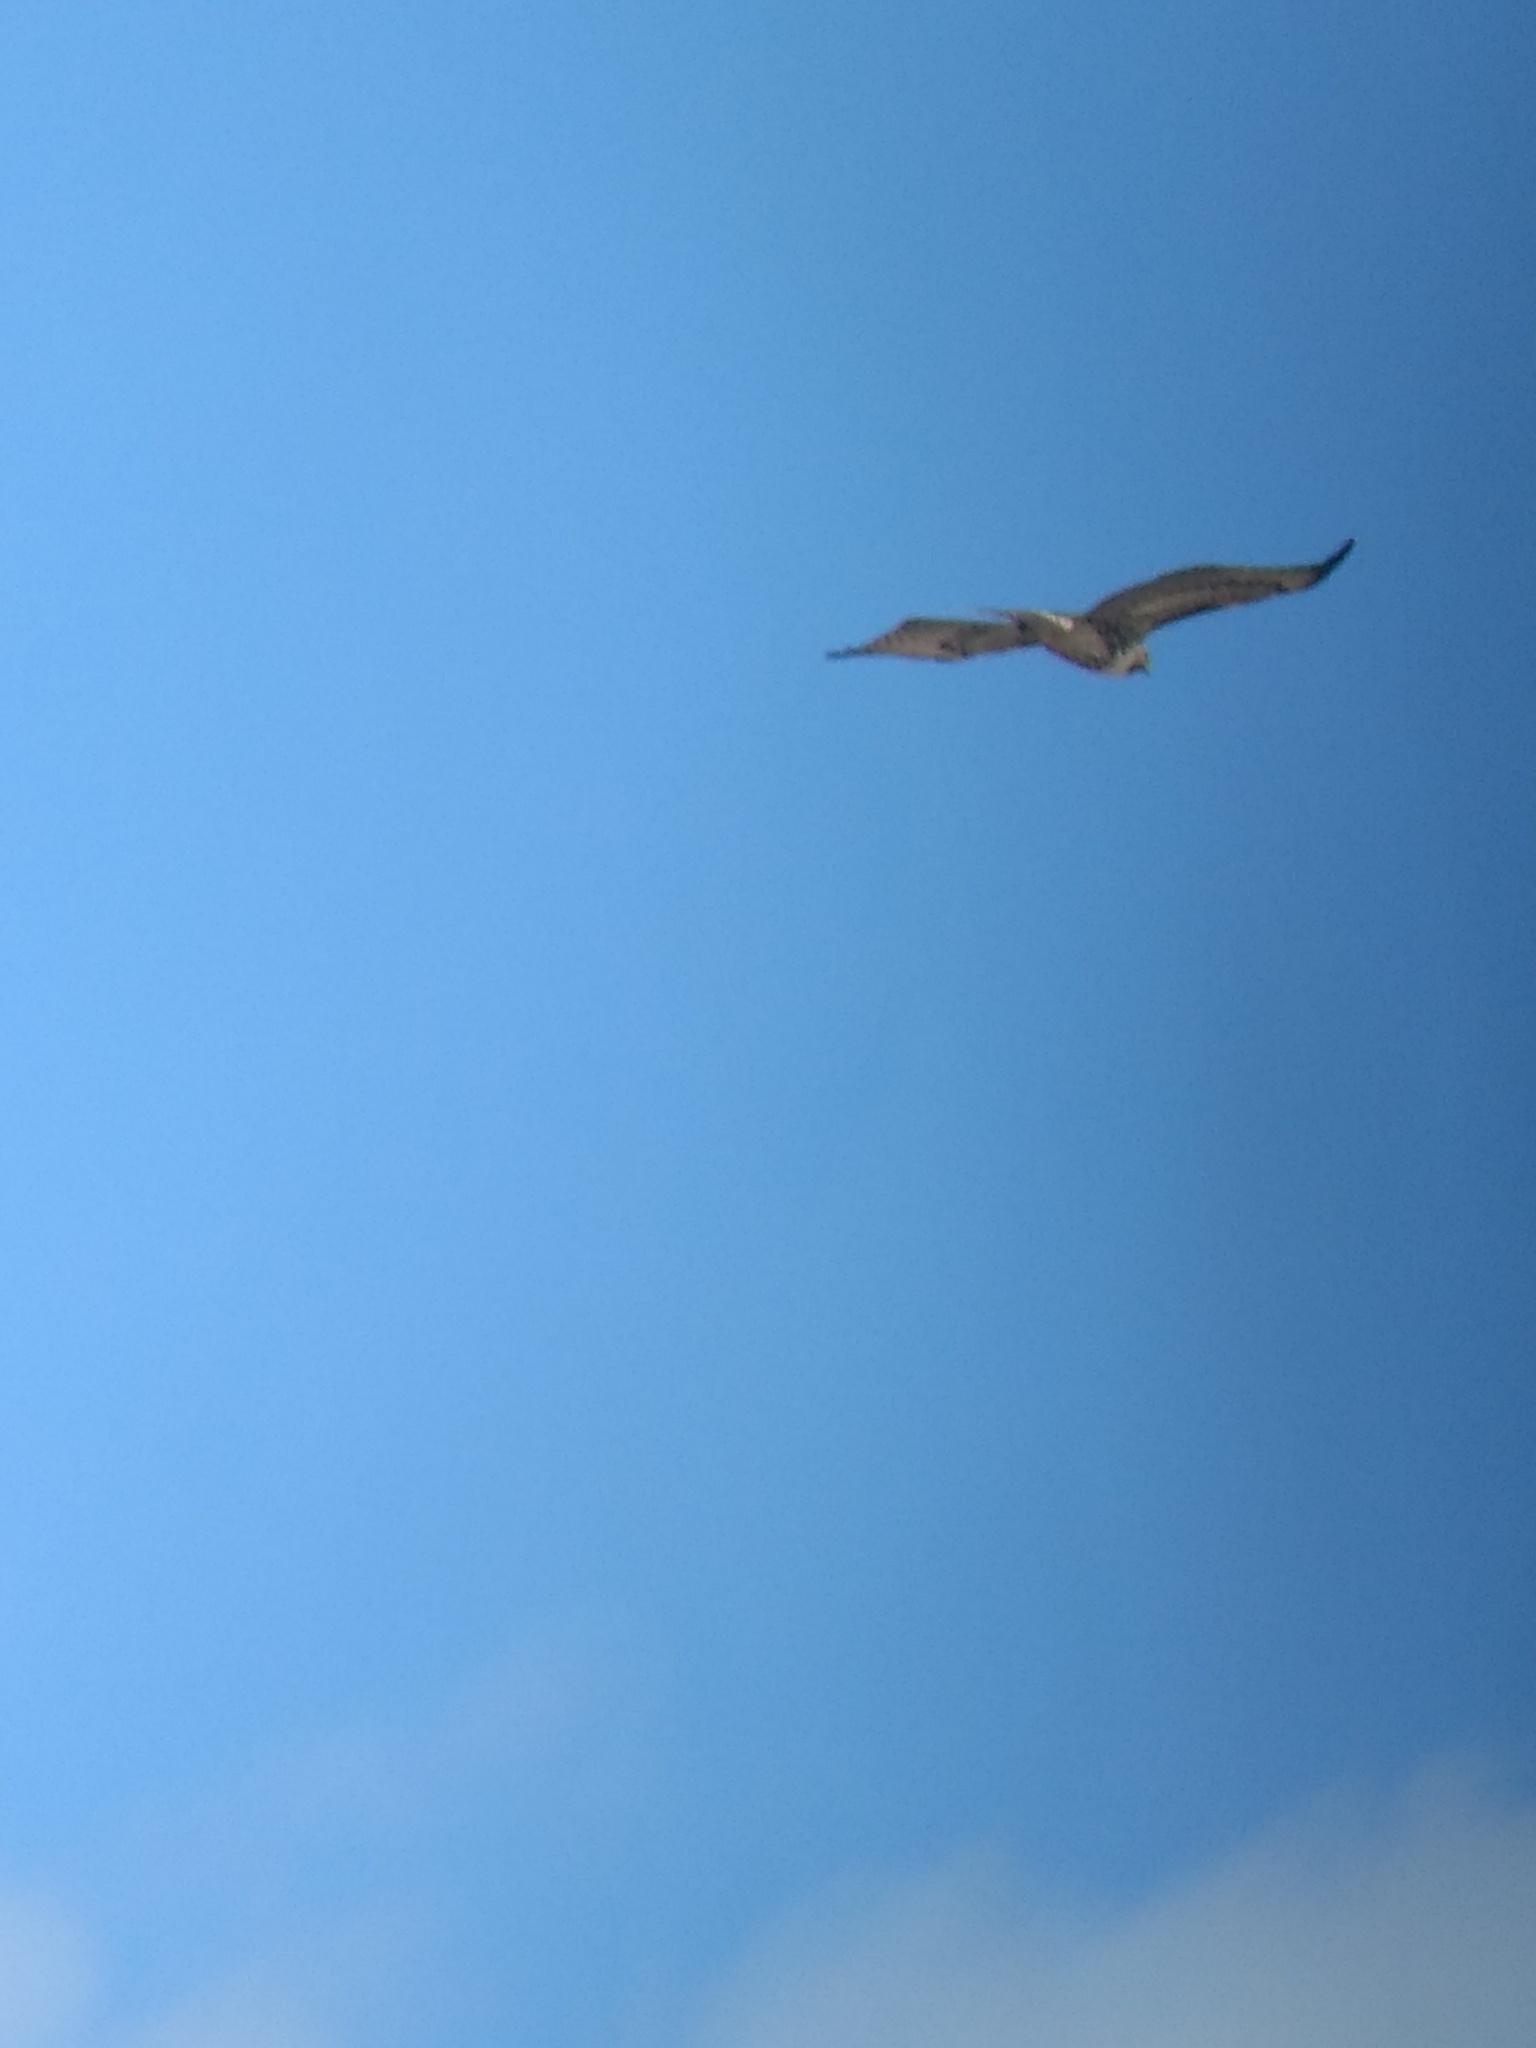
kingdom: Animalia
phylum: Chordata
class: Aves
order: Accipitriformes
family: Accipitridae
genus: Buteo
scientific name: Buteo jamaicensis
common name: Red-tailed hawk
